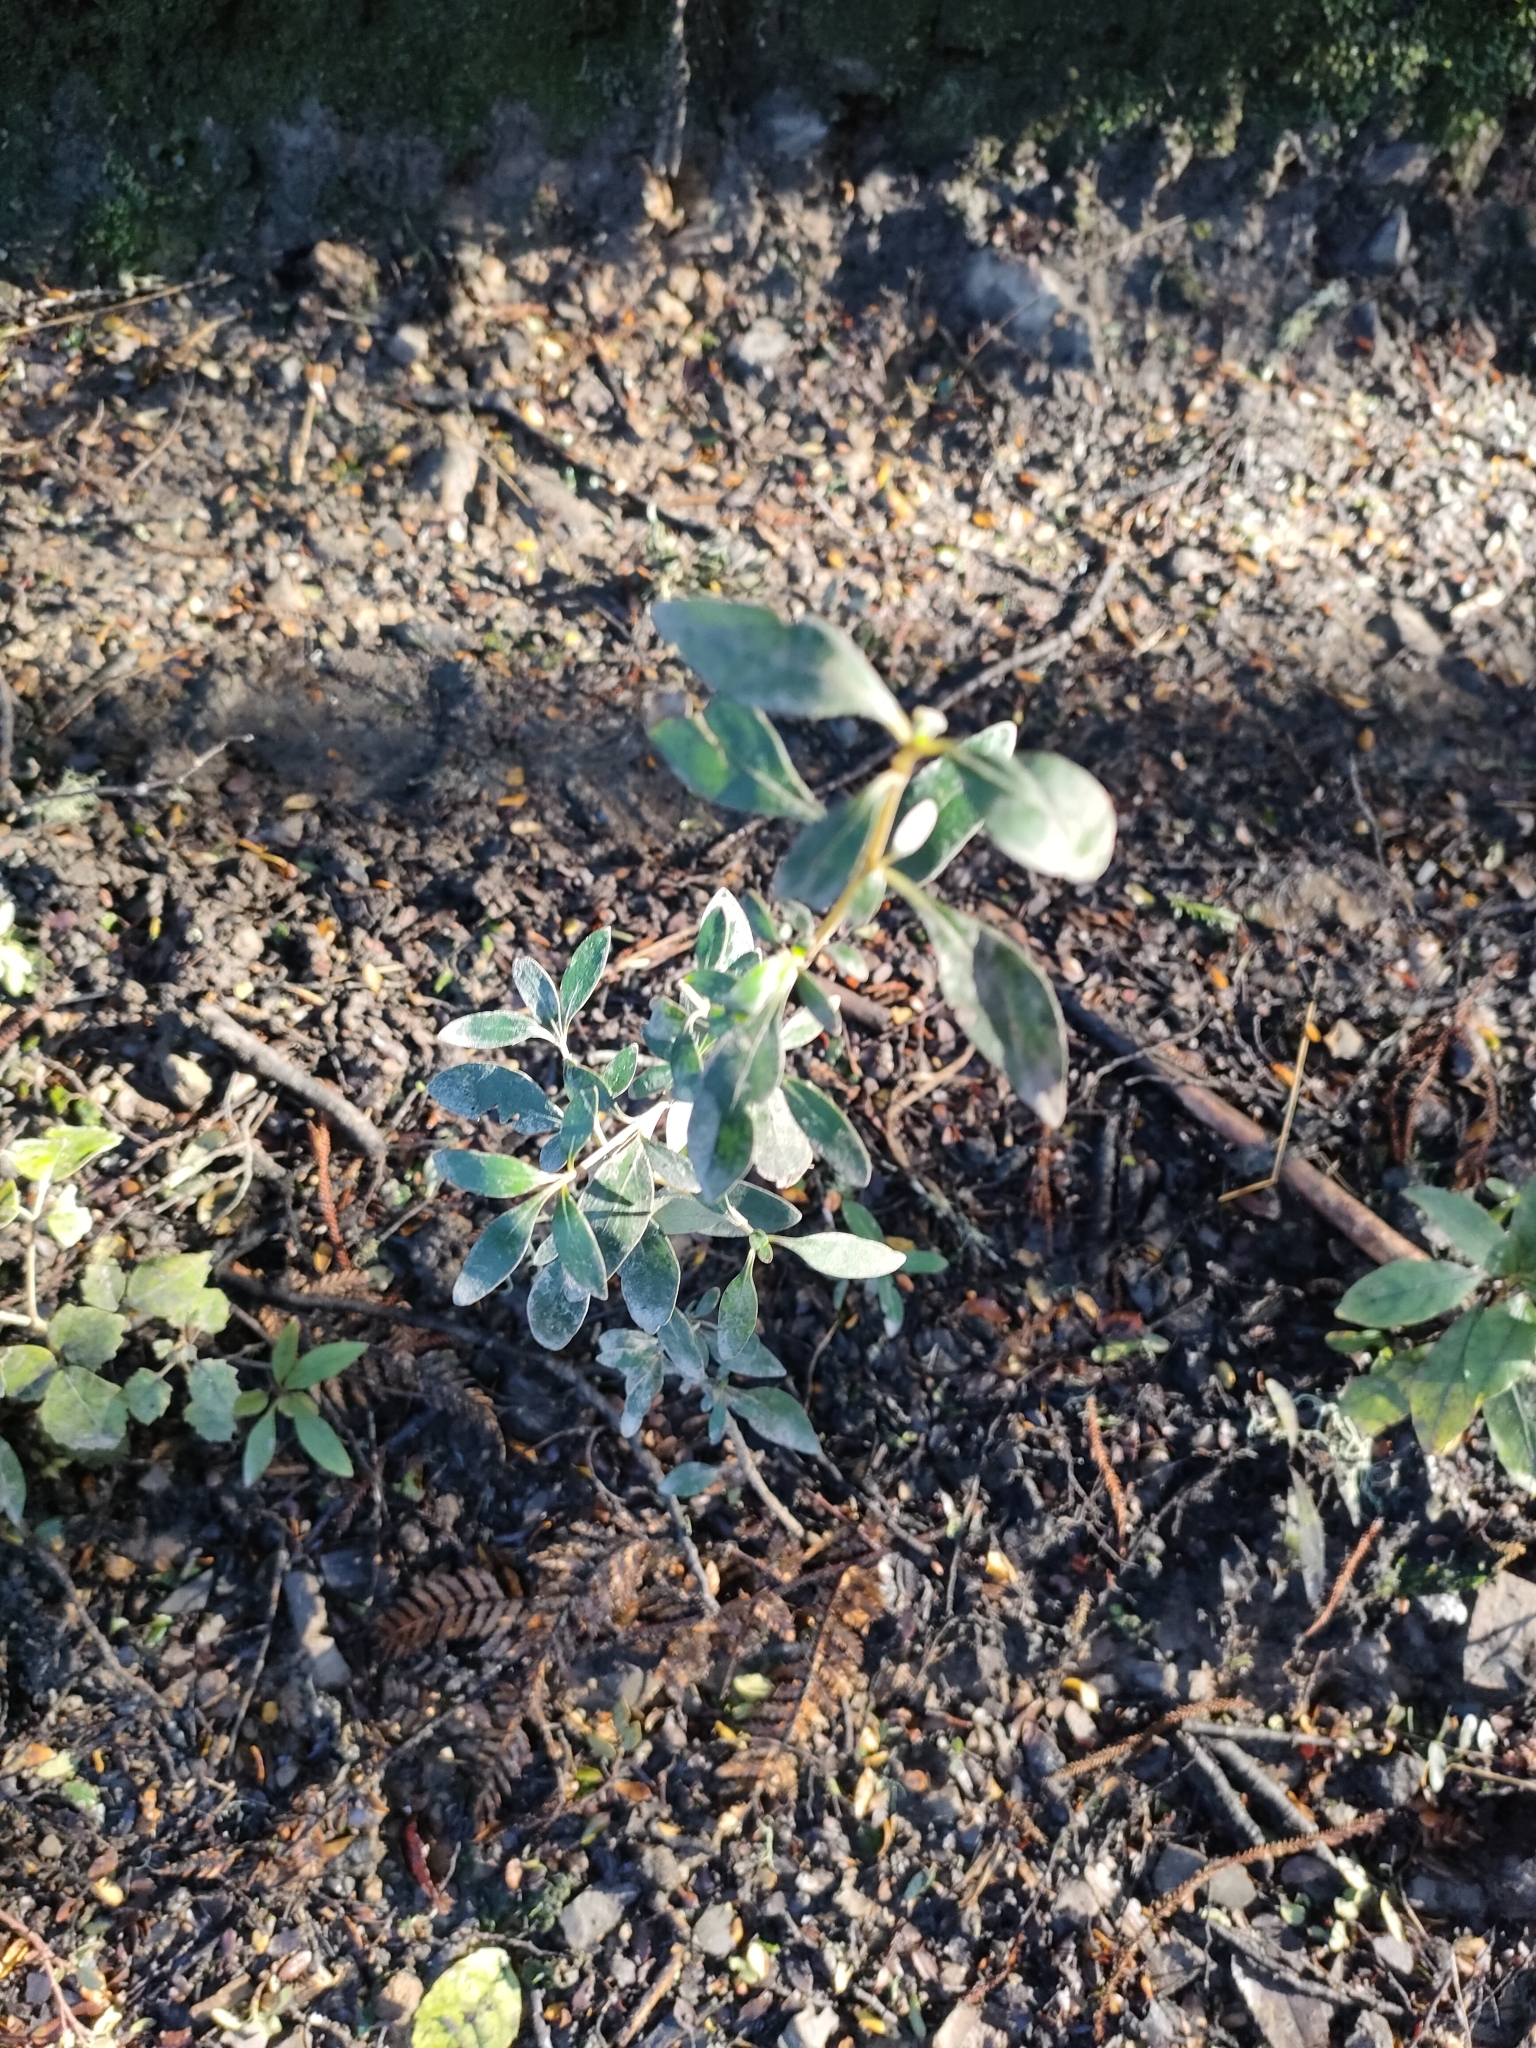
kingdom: Plantae
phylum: Tracheophyta
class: Magnoliopsida
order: Gentianales
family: Rubiaceae
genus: Coprosma
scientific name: Coprosma cunninghamii
